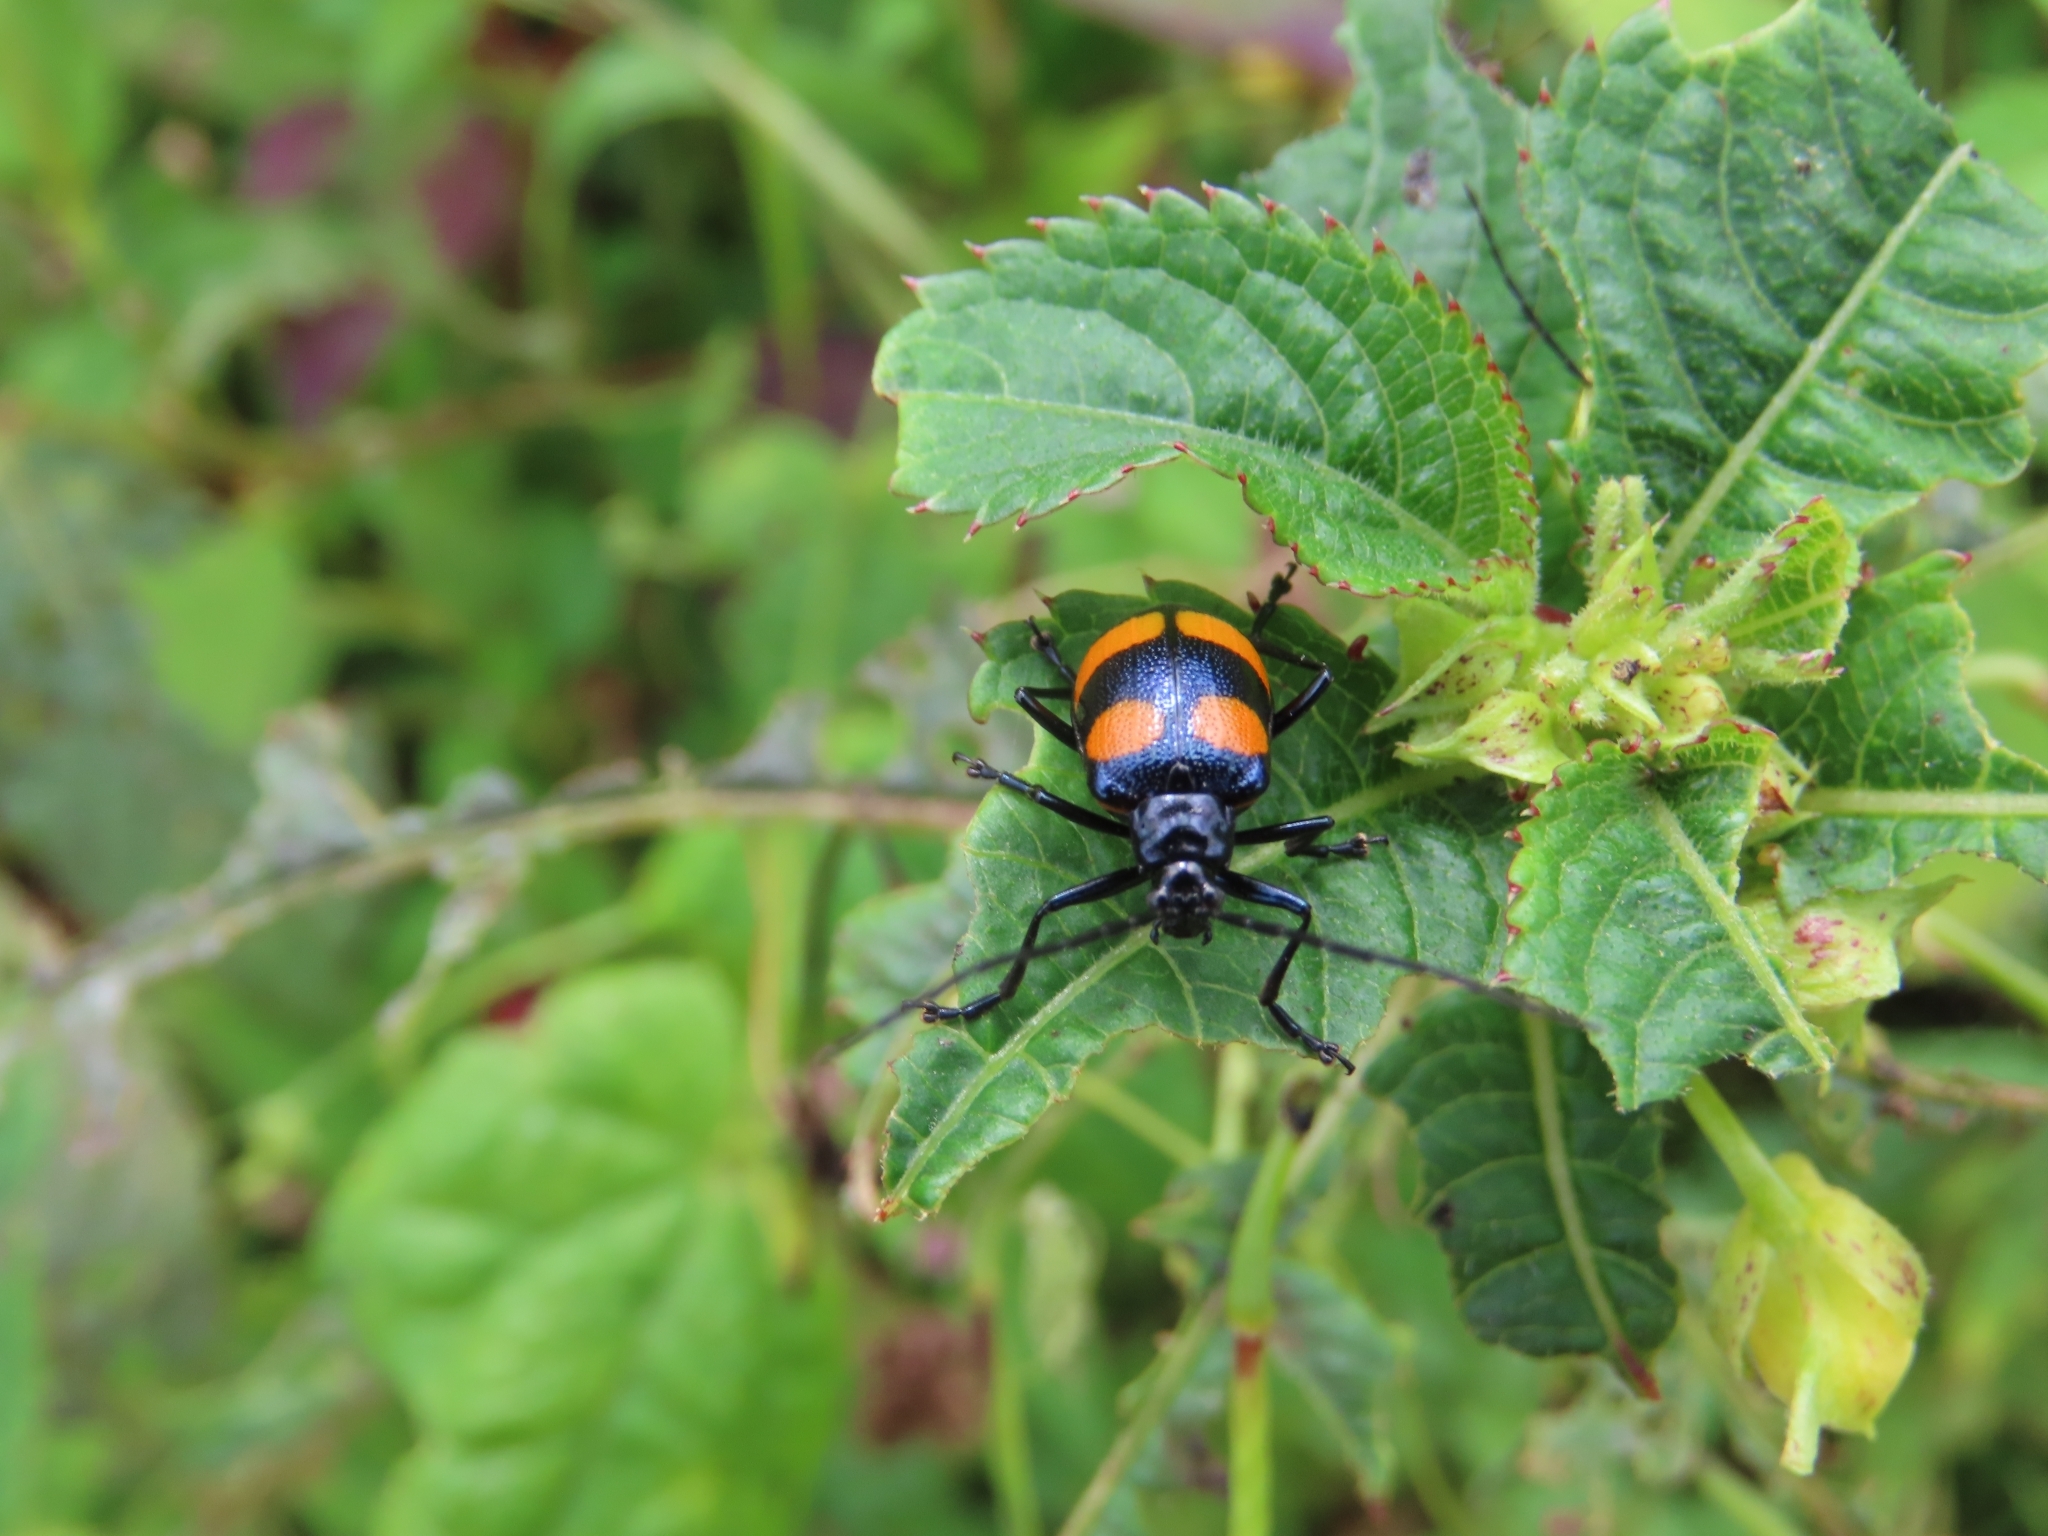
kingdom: Animalia
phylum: Arthropoda
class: Insecta
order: Coleoptera
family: Chrysomelidae
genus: Meristata
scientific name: Meristata
